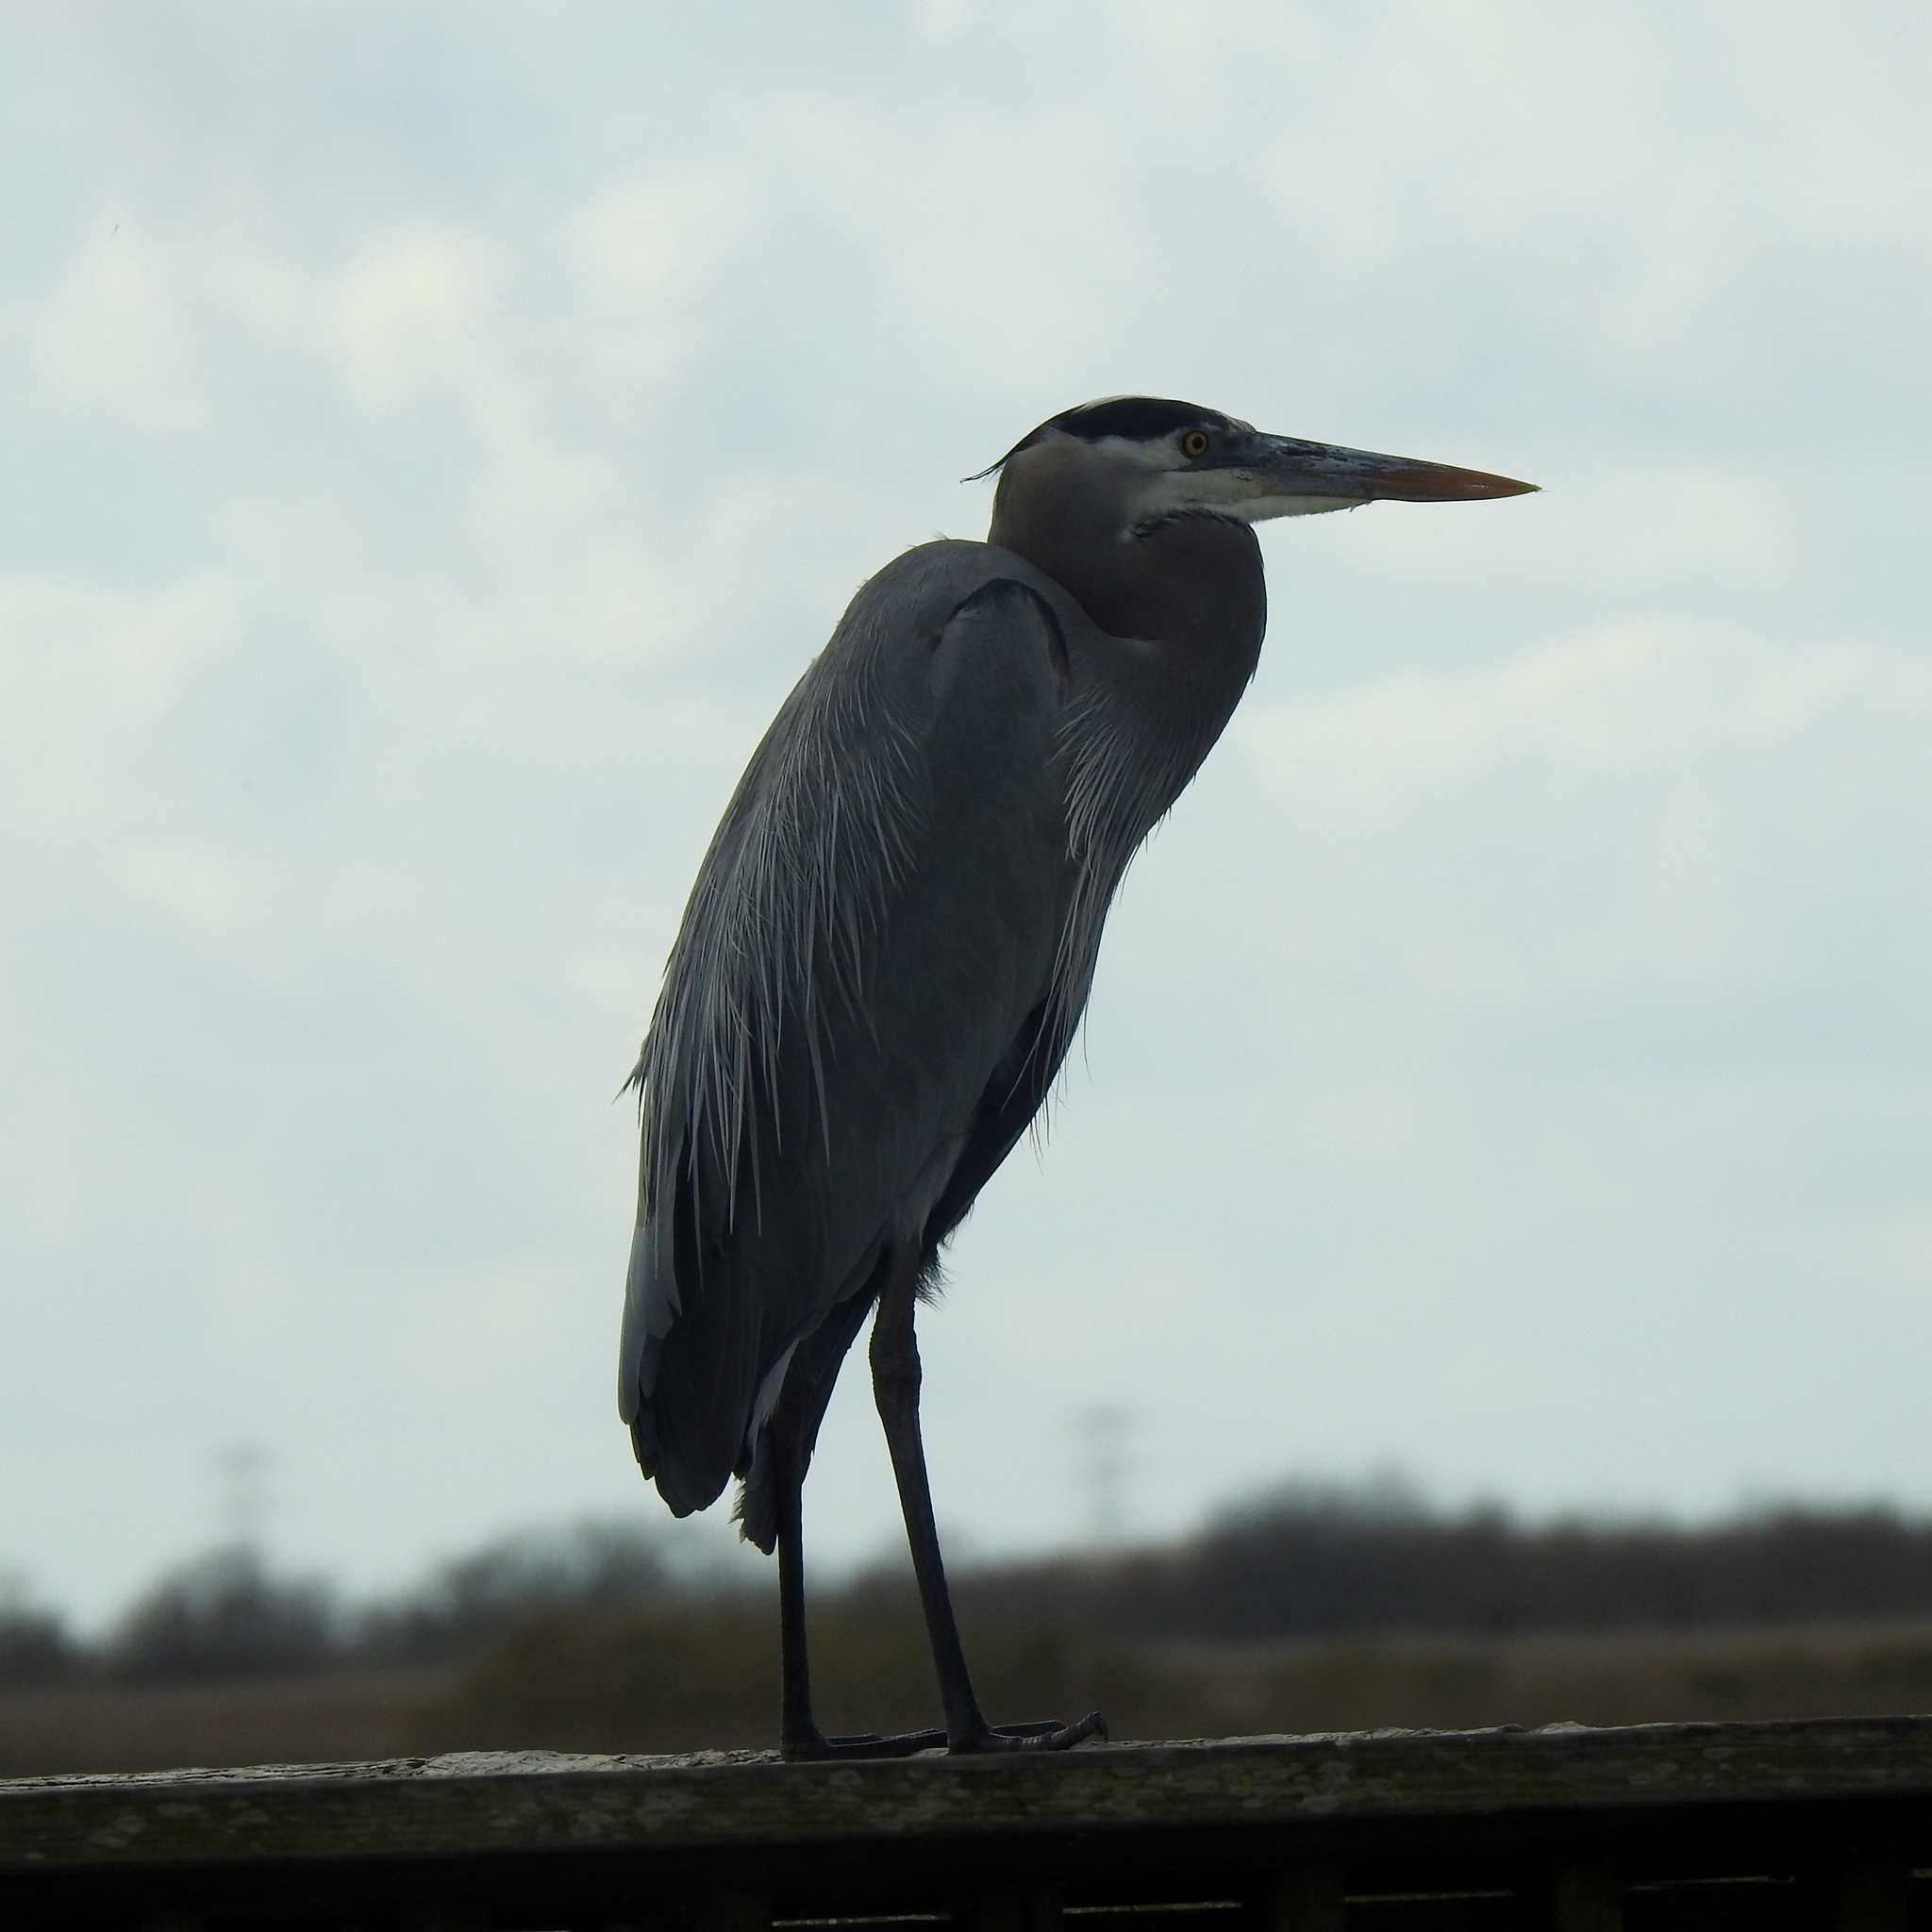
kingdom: Animalia
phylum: Chordata
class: Aves
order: Pelecaniformes
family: Ardeidae
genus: Ardea
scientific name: Ardea herodias
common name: Great blue heron
